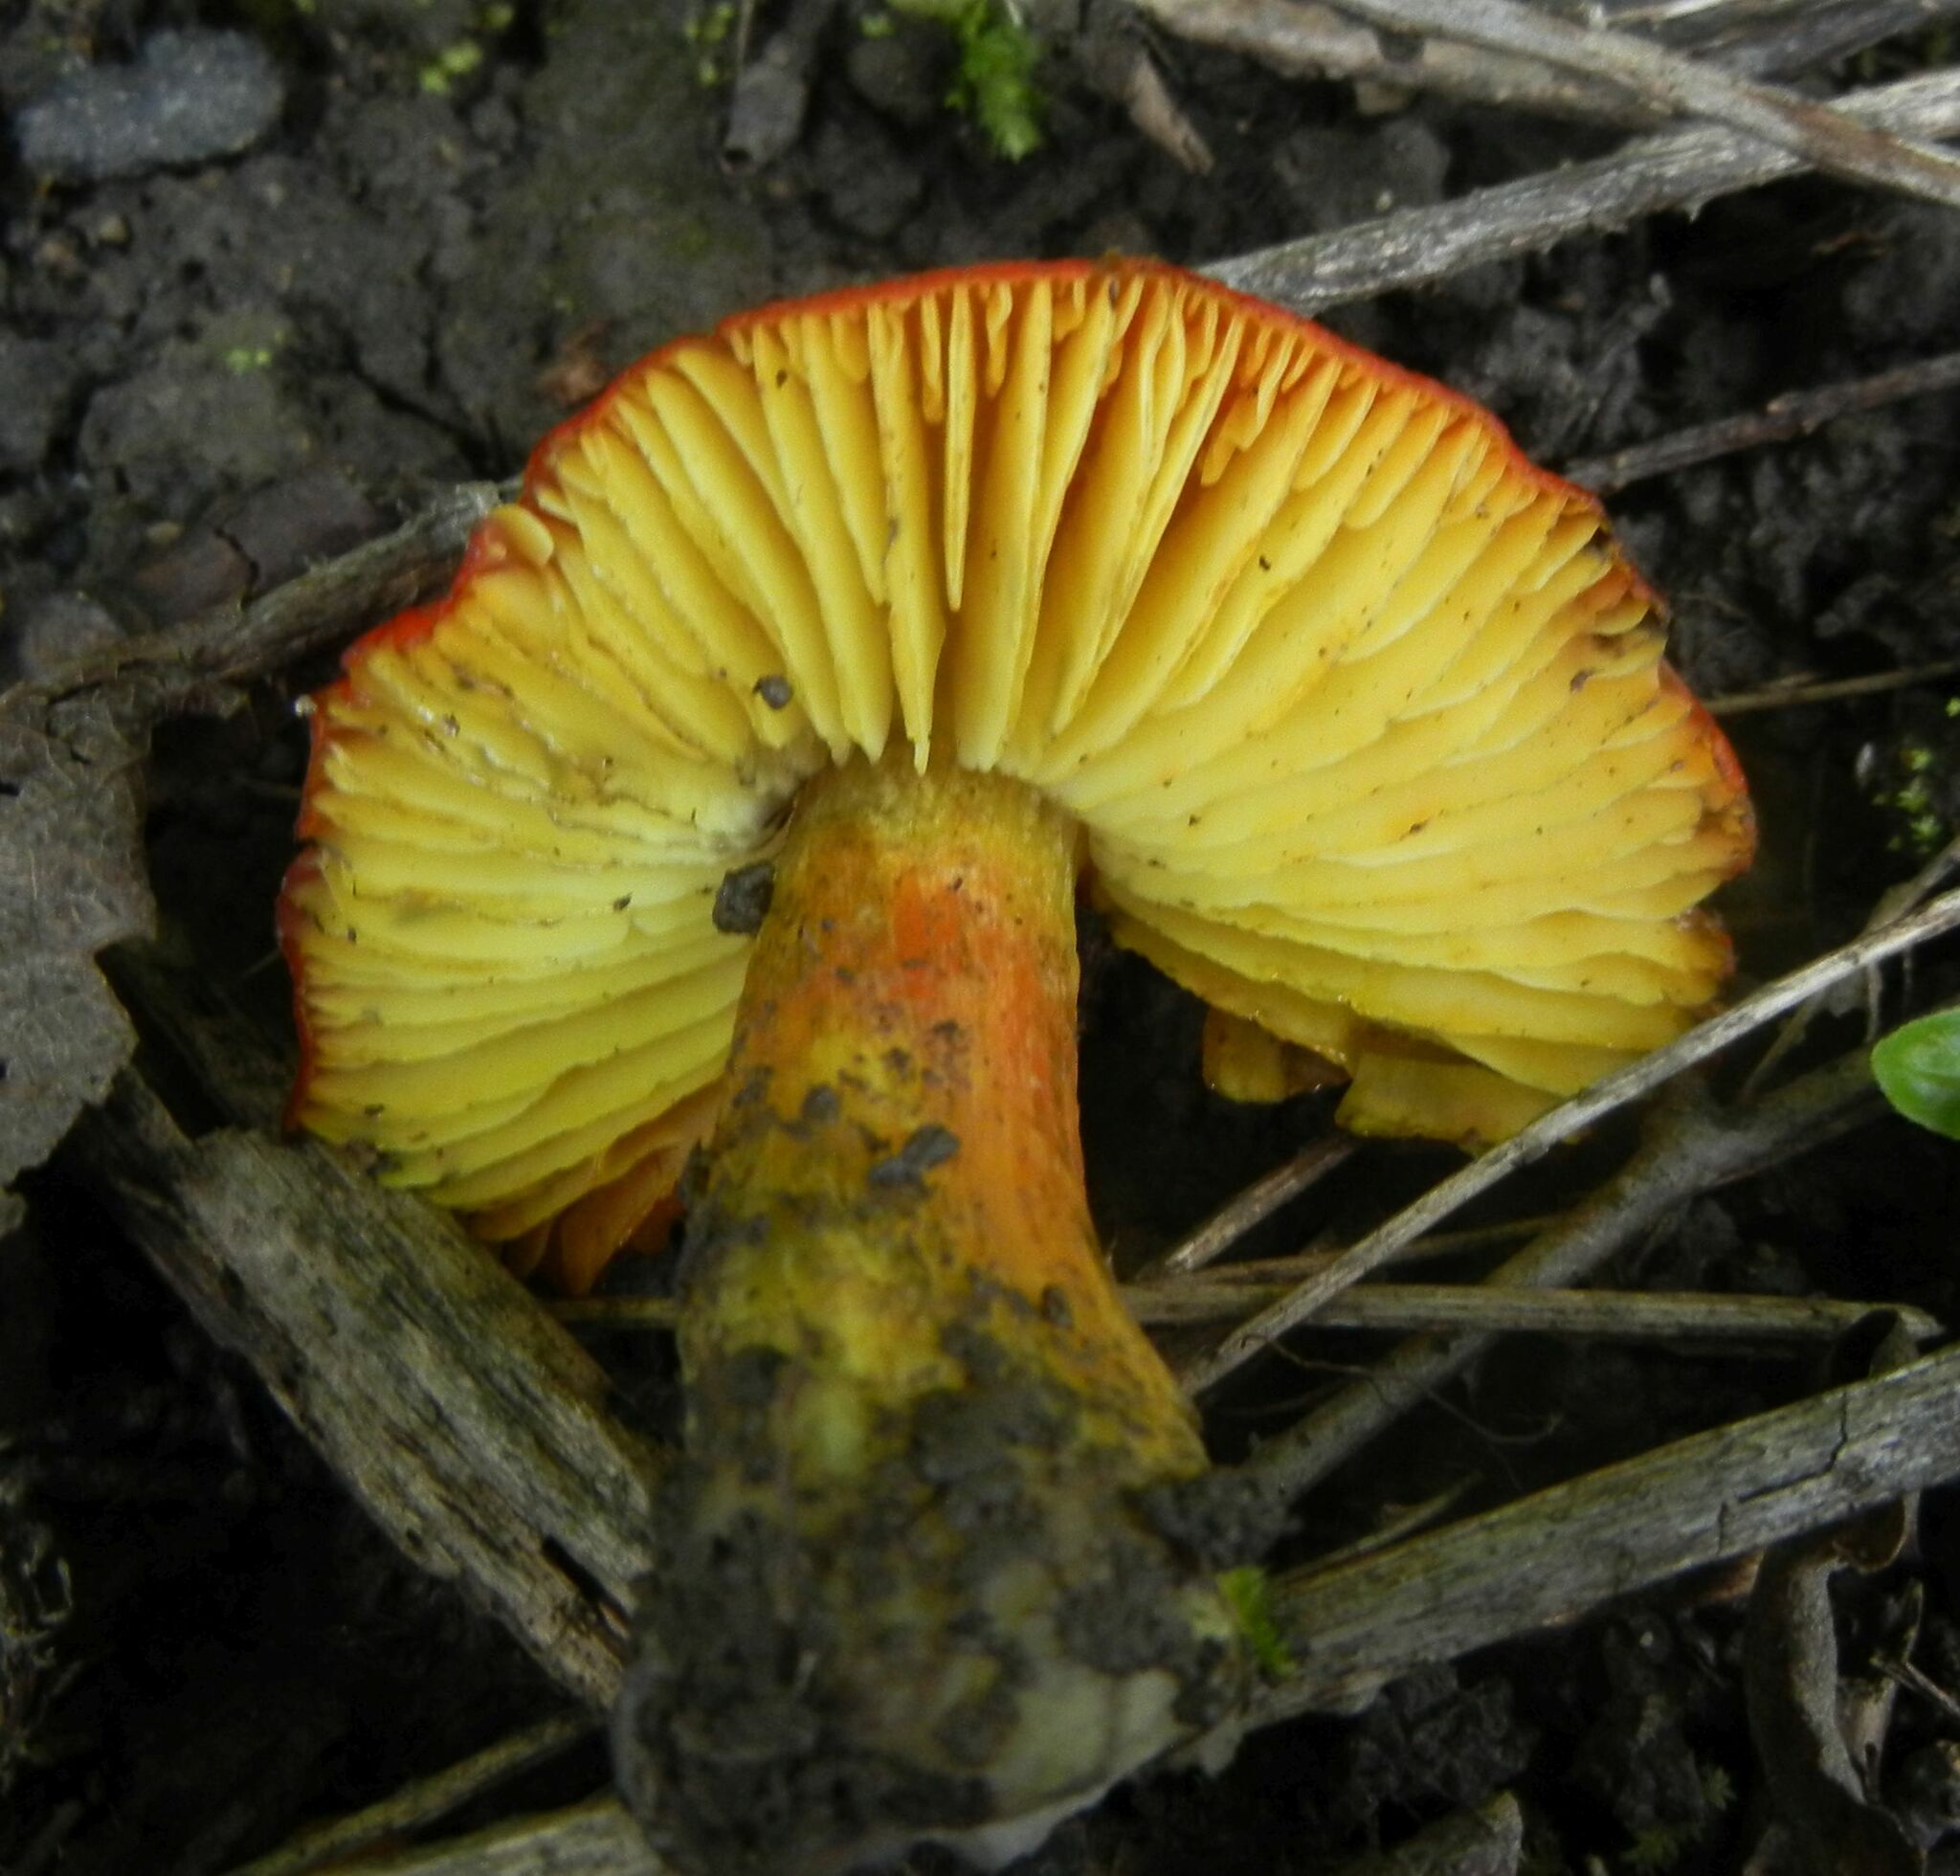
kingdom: Fungi
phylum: Basidiomycota
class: Agaricomycetes
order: Agaricales
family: Hygrophoraceae
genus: Hygrocybe
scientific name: Hygrocybe conica
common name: Blackening wax-cap
